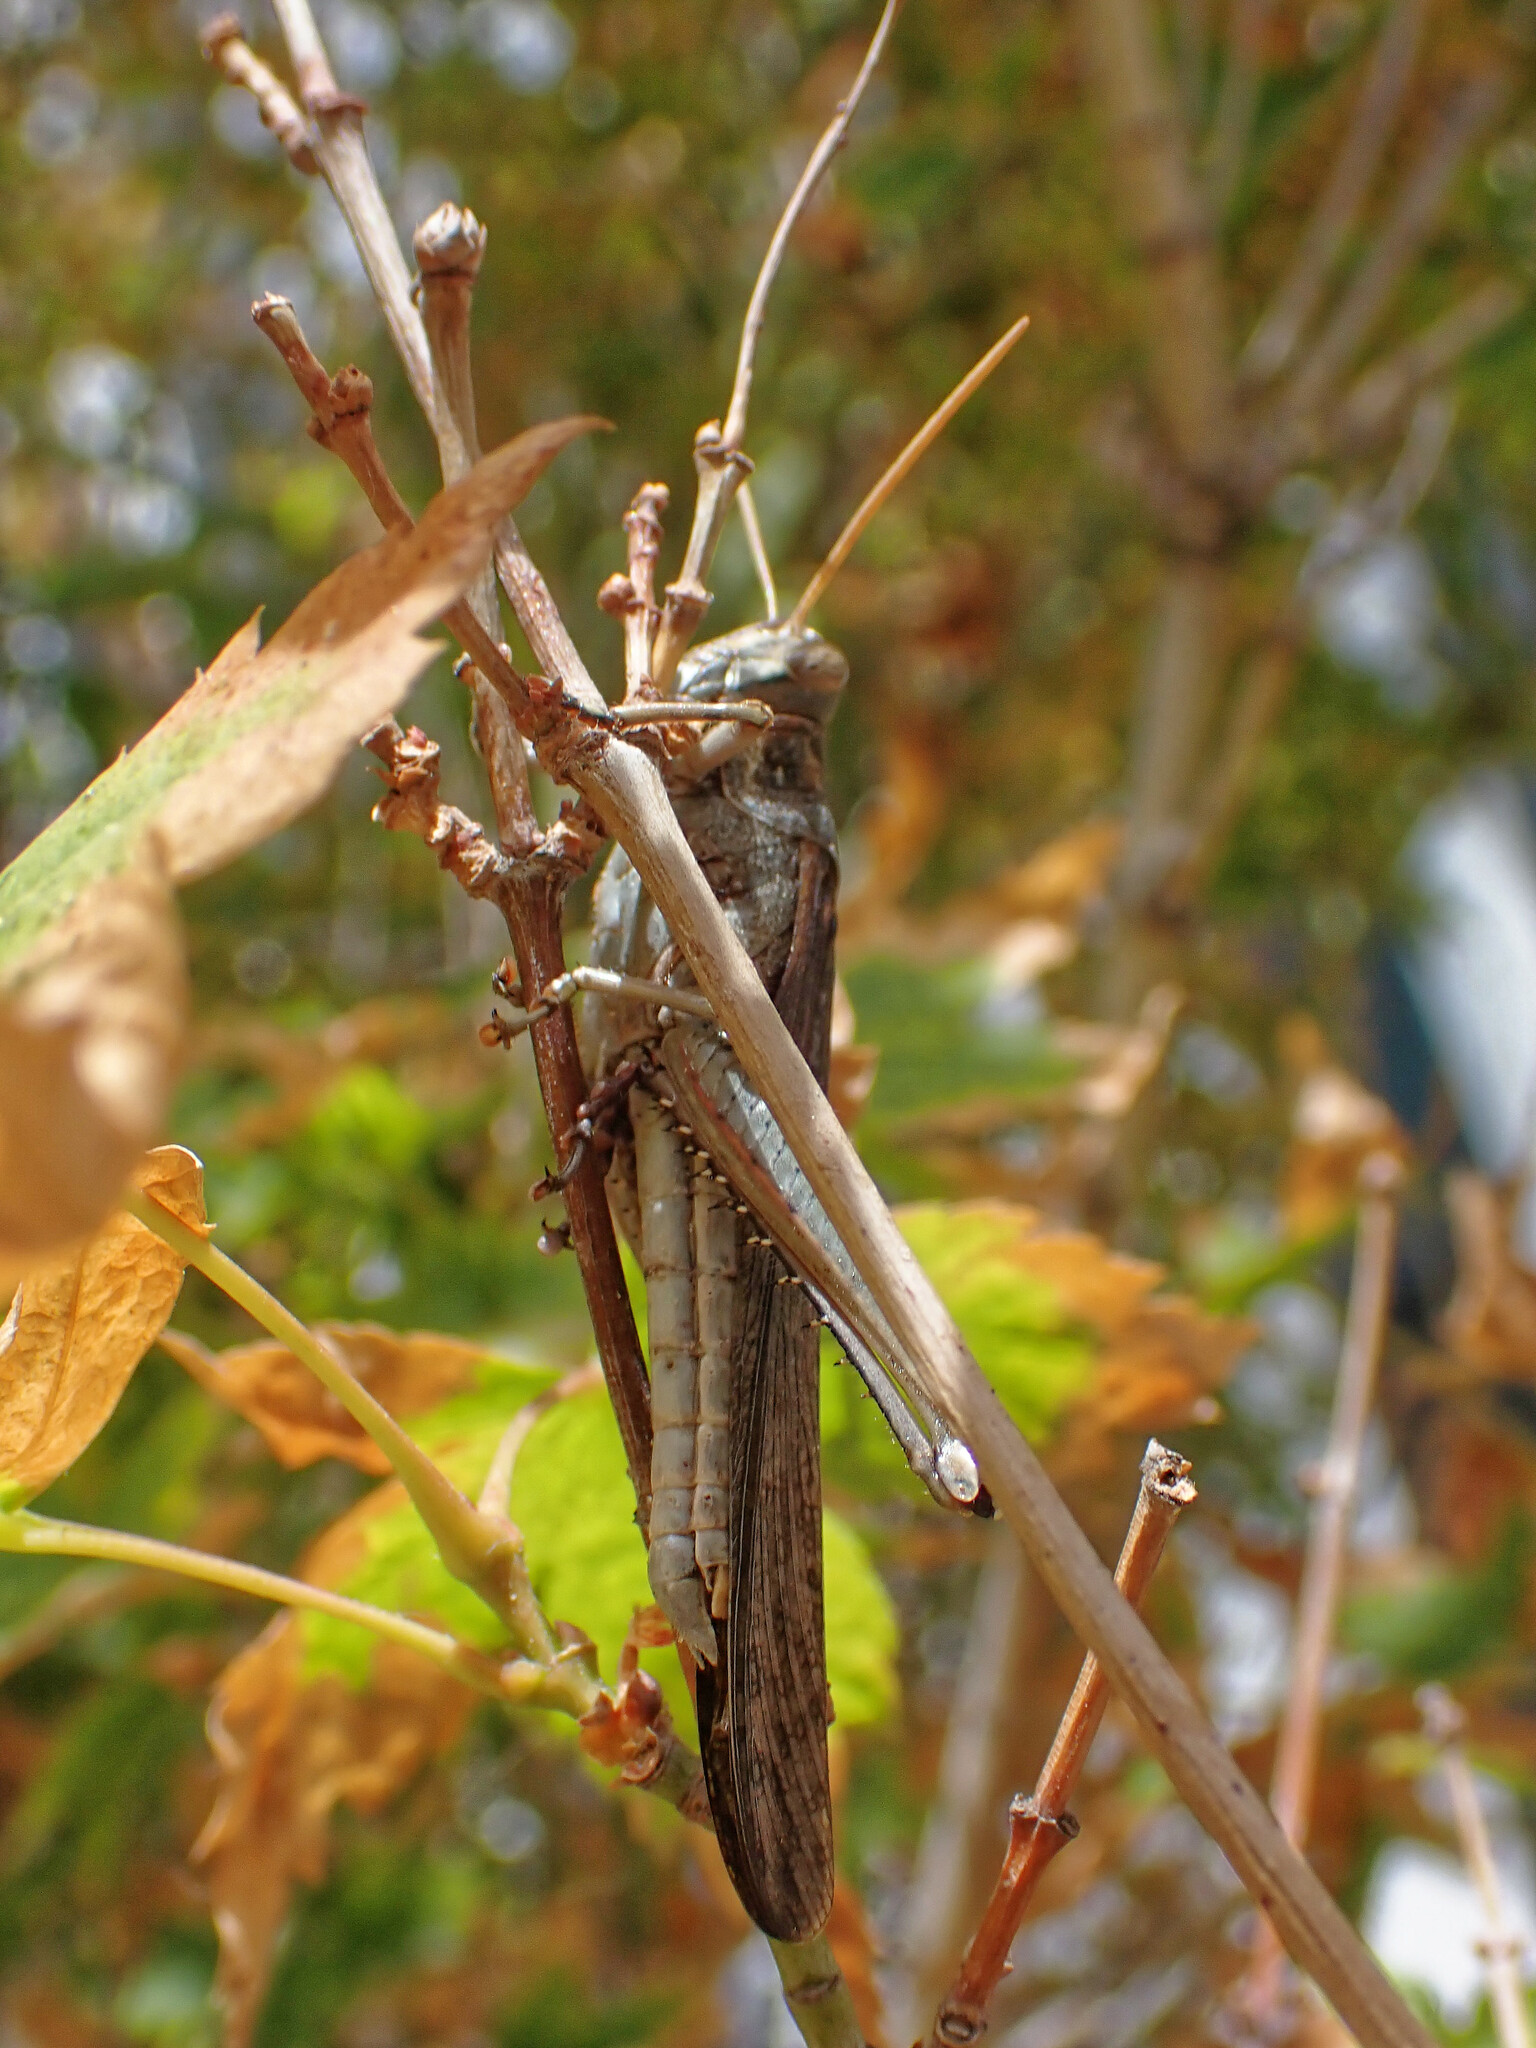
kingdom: Animalia
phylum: Arthropoda
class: Insecta
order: Orthoptera
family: Acrididae
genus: Schistocerca
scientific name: Schistocerca nitens
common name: Vagrant grasshopper
